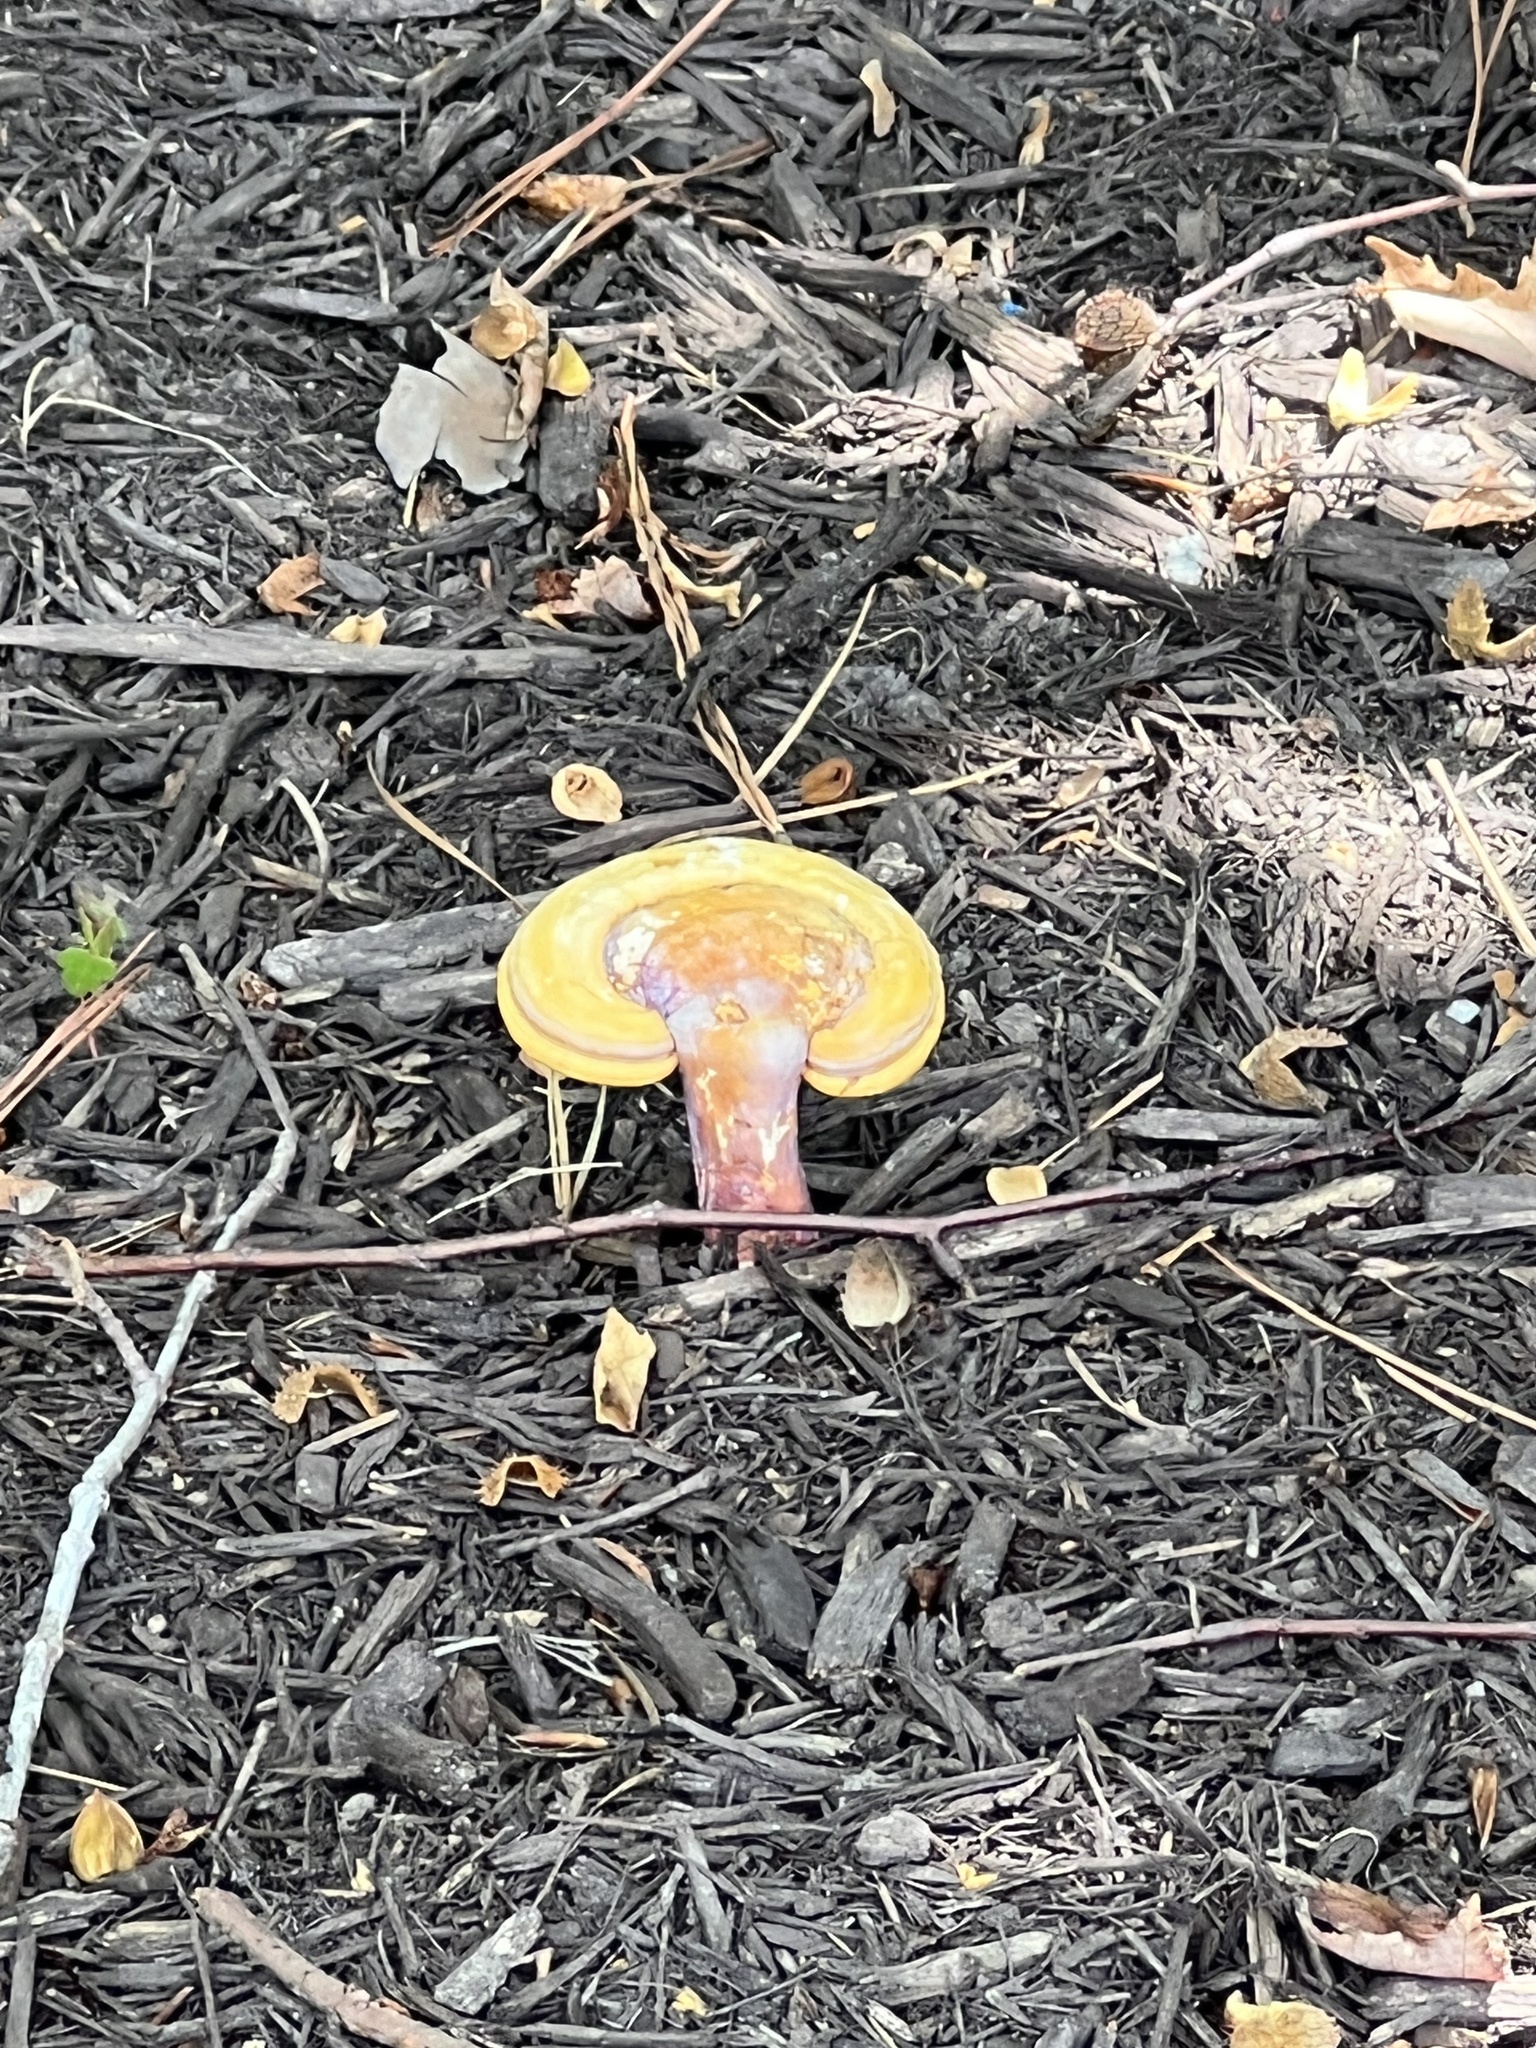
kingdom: Fungi
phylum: Basidiomycota
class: Agaricomycetes
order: Polyporales
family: Polyporaceae
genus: Ganoderma
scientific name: Ganoderma curtisii
